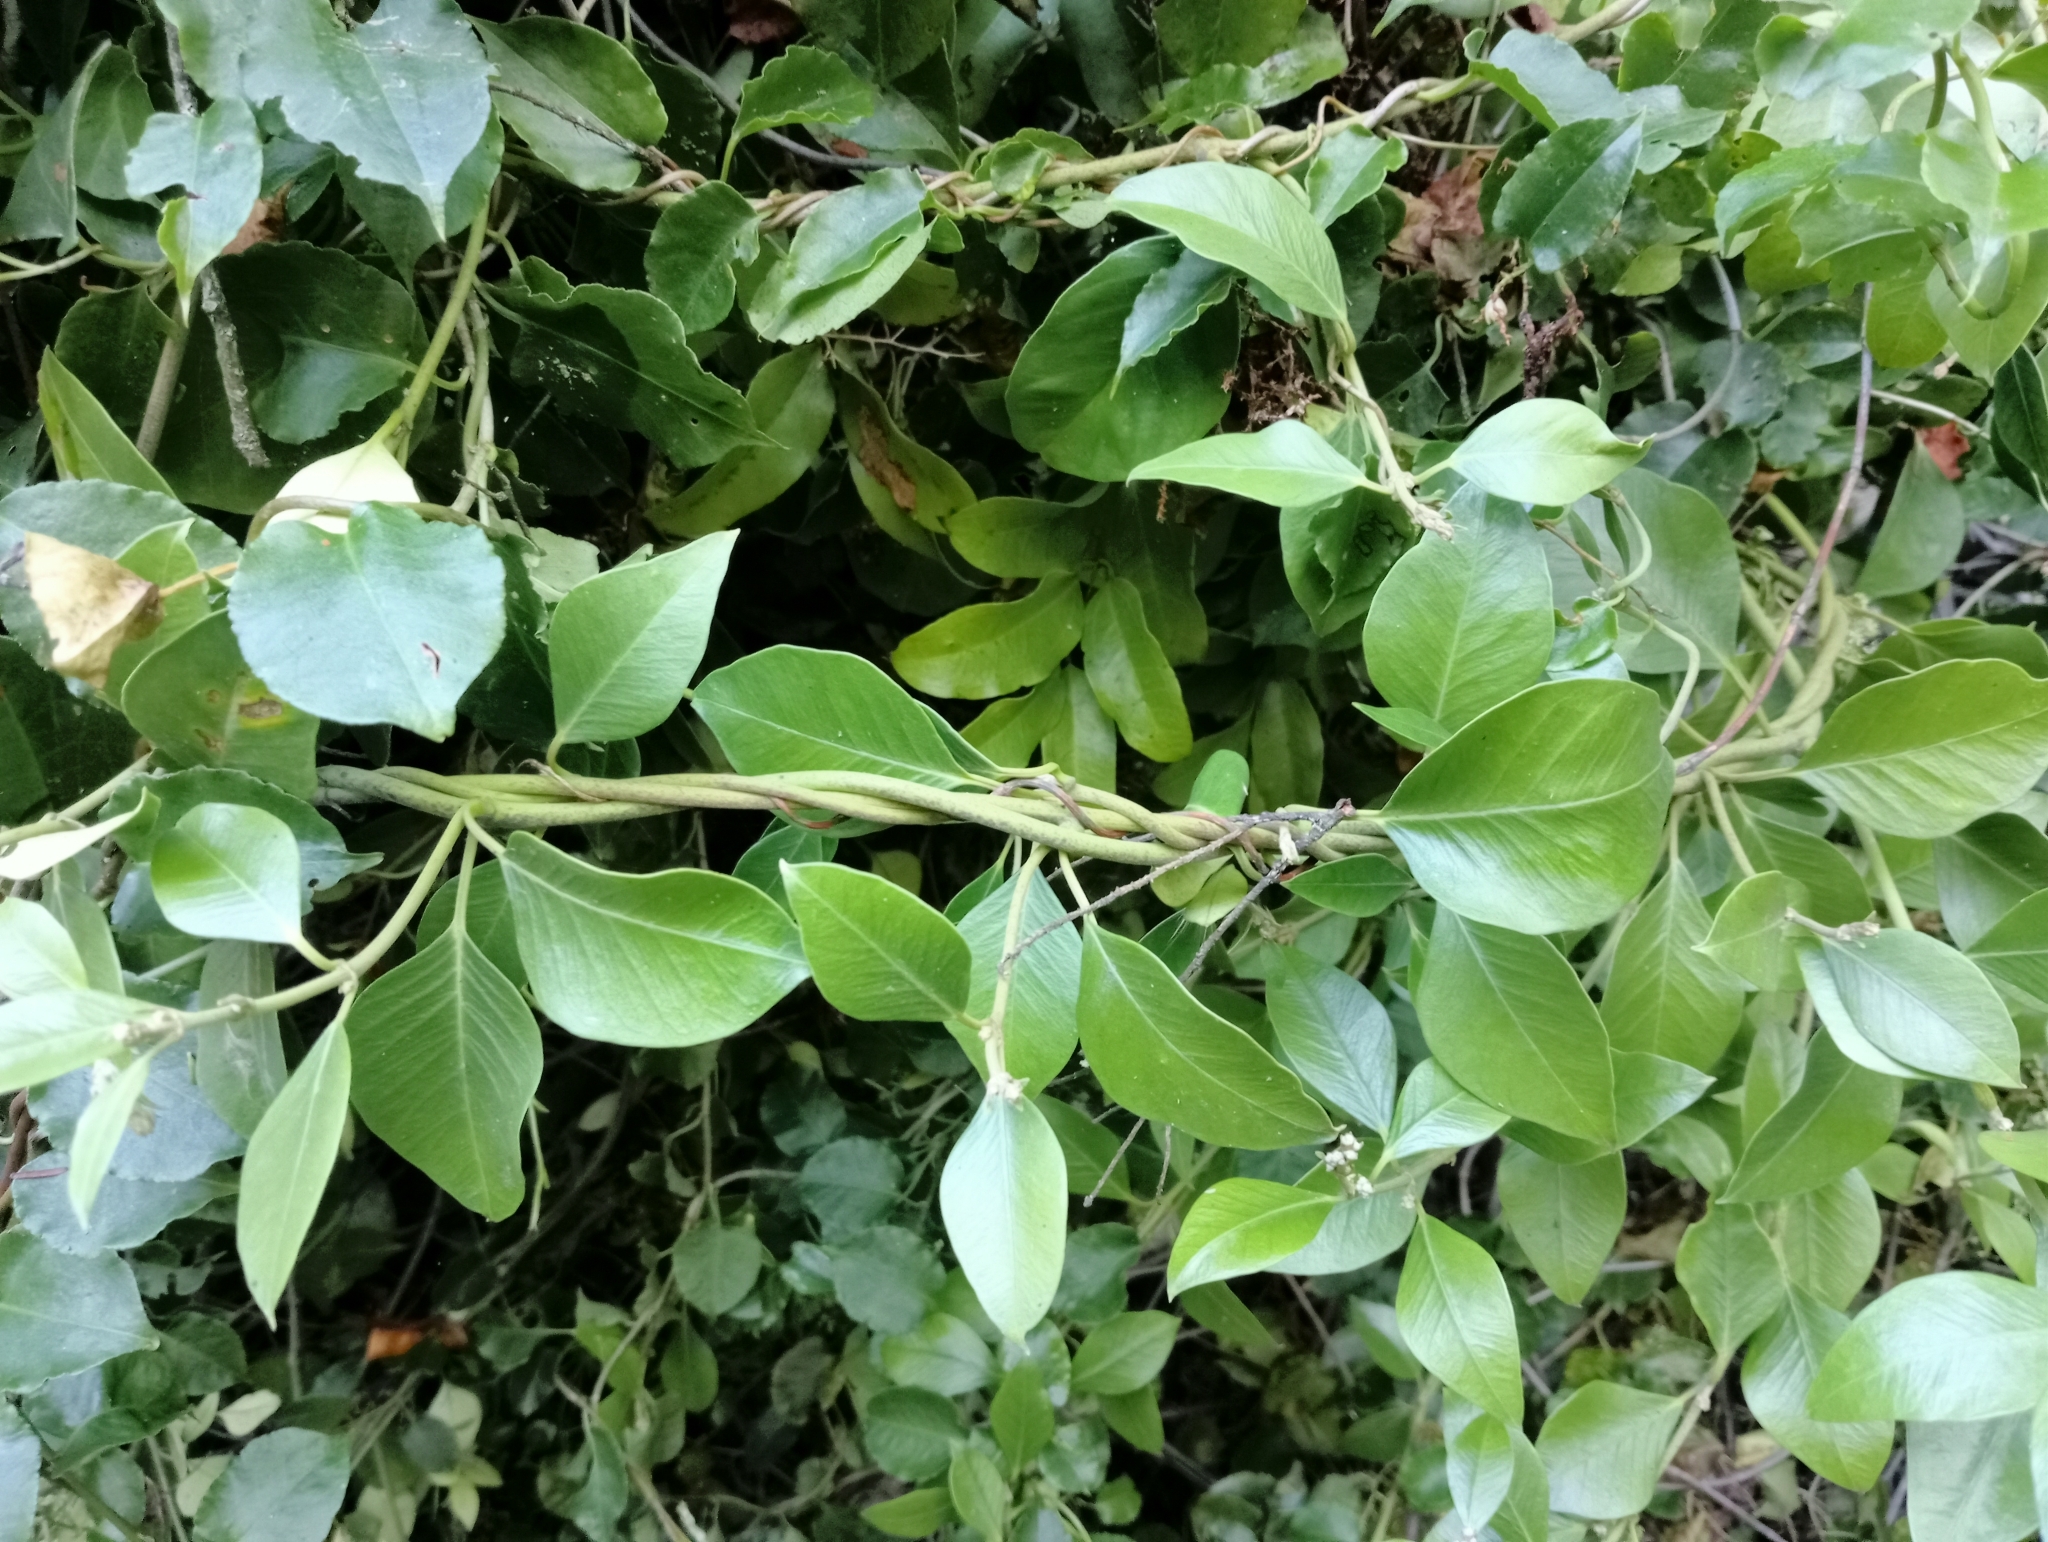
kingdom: Plantae
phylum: Tracheophyta
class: Magnoliopsida
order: Gentianales
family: Apocynaceae
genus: Parsonsia
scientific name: Parsonsia heterophylla
